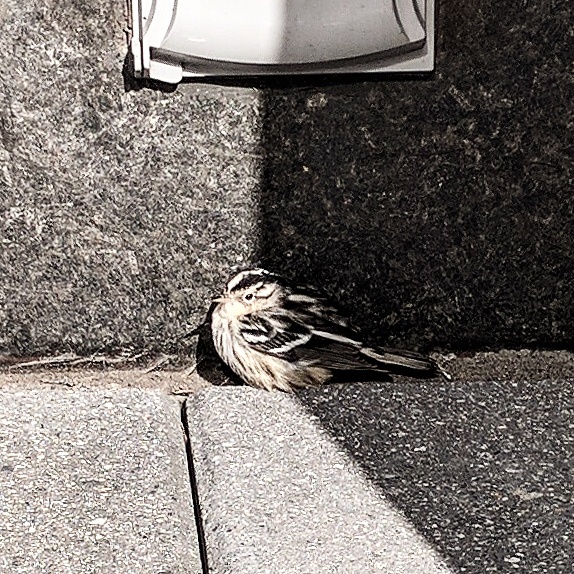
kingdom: Animalia
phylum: Chordata
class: Aves
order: Passeriformes
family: Parulidae
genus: Mniotilta
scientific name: Mniotilta varia
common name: Black-and-white warbler
